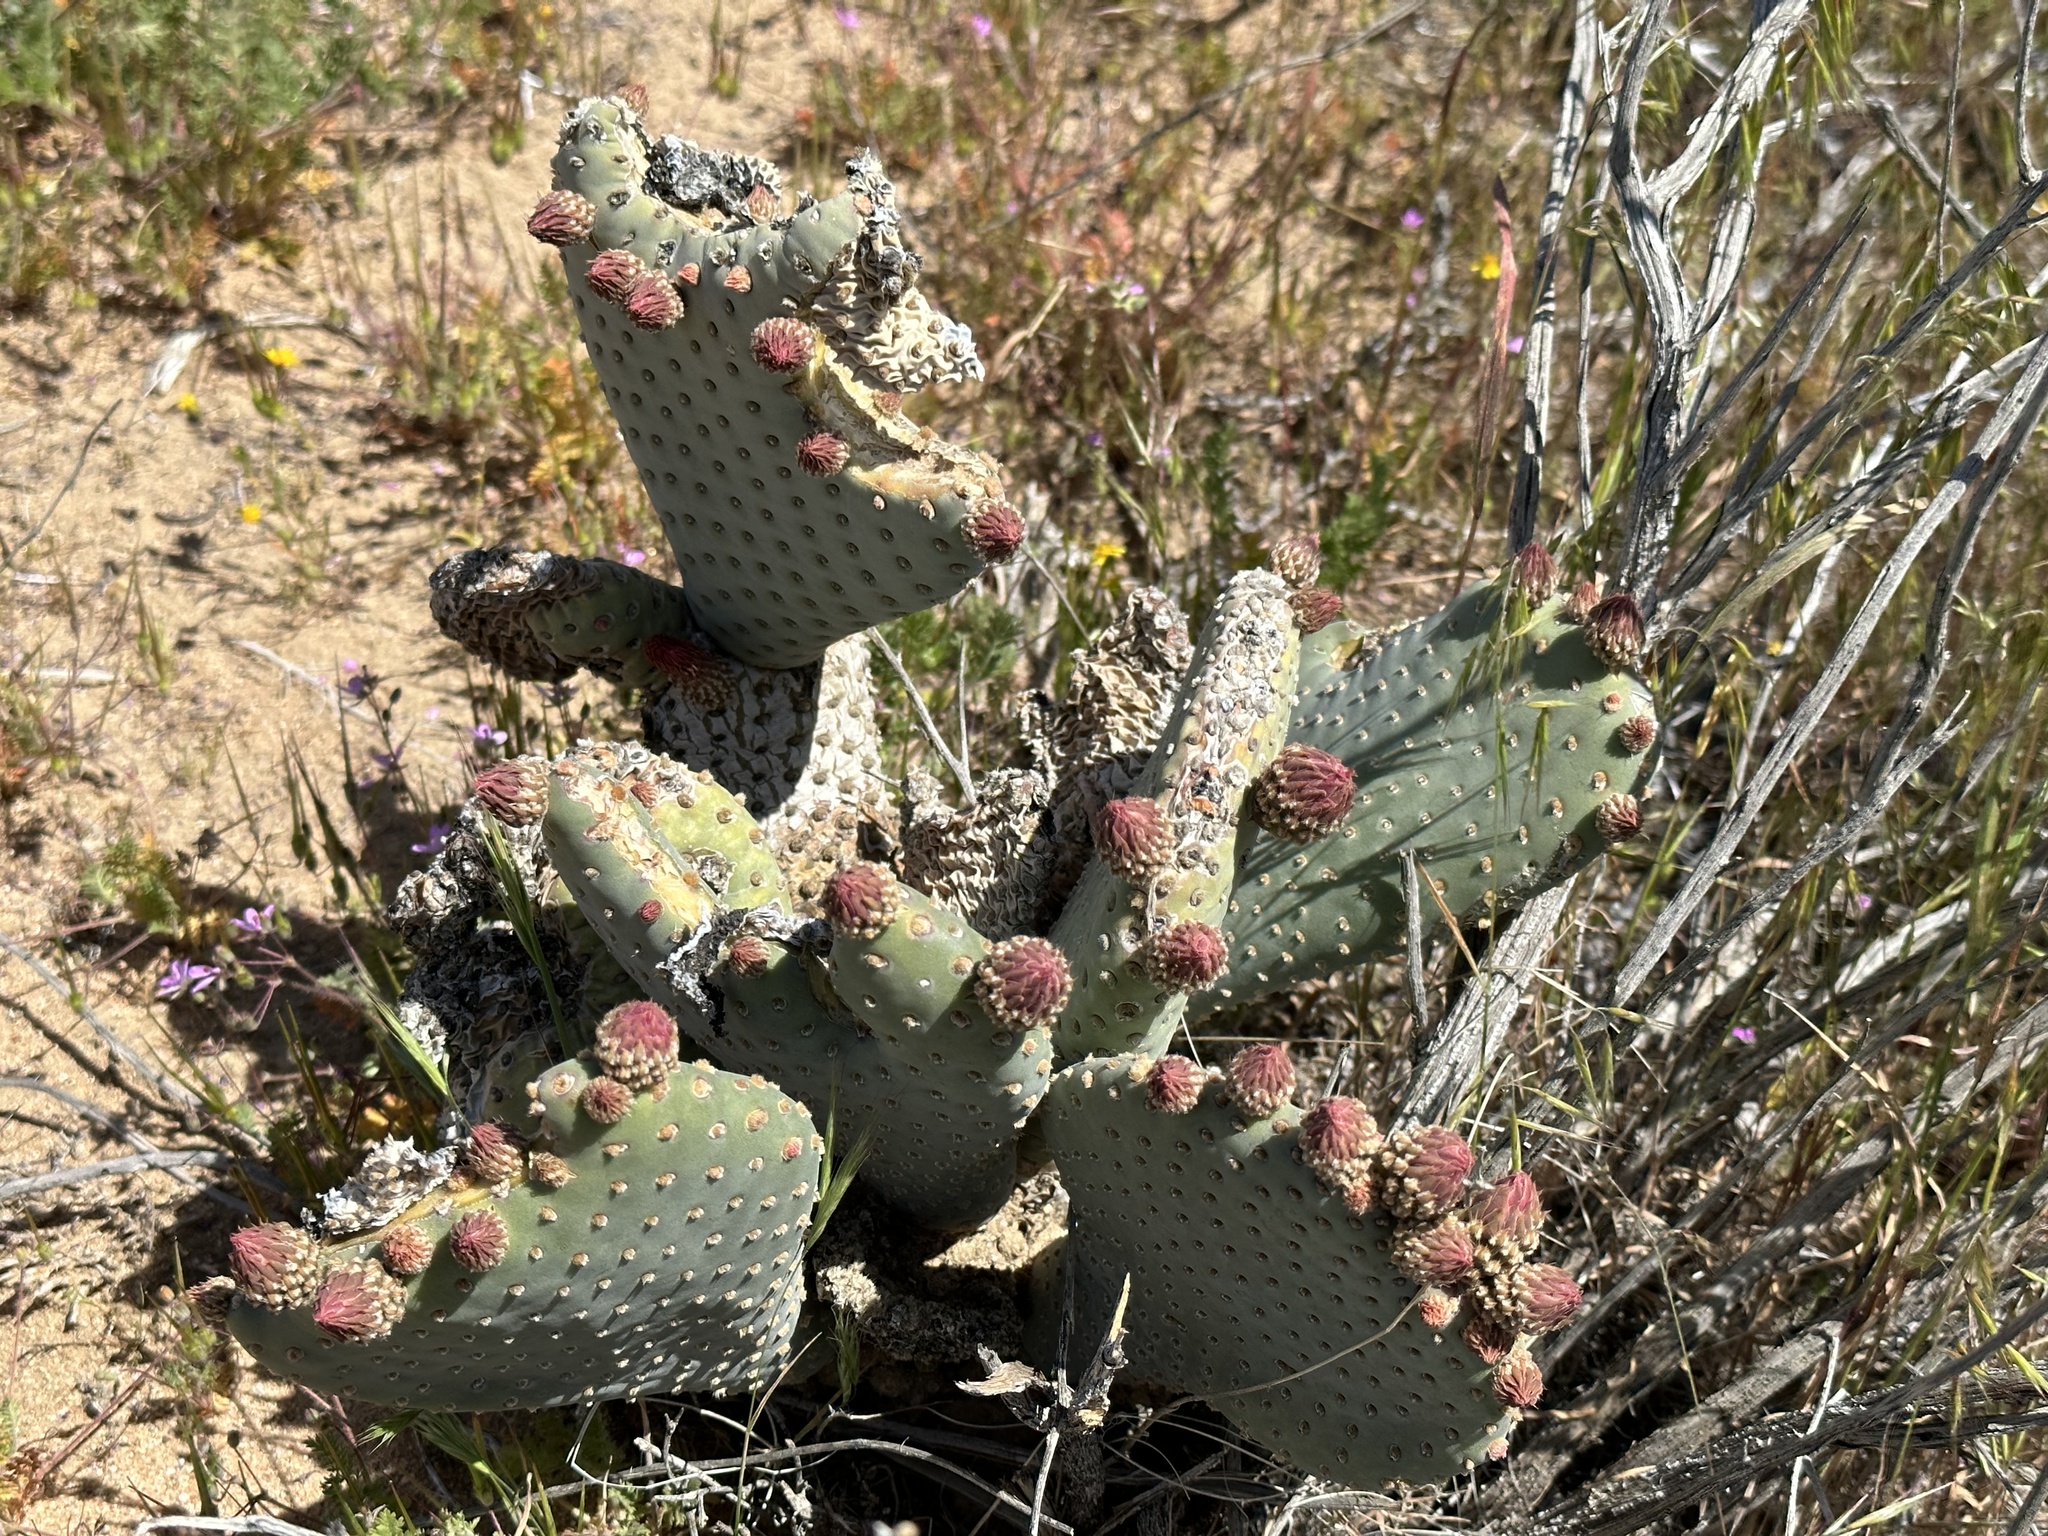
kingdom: Plantae
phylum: Tracheophyta
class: Magnoliopsida
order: Caryophyllales
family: Cactaceae
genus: Opuntia
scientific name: Opuntia basilaris
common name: Beavertail prickly-pear
